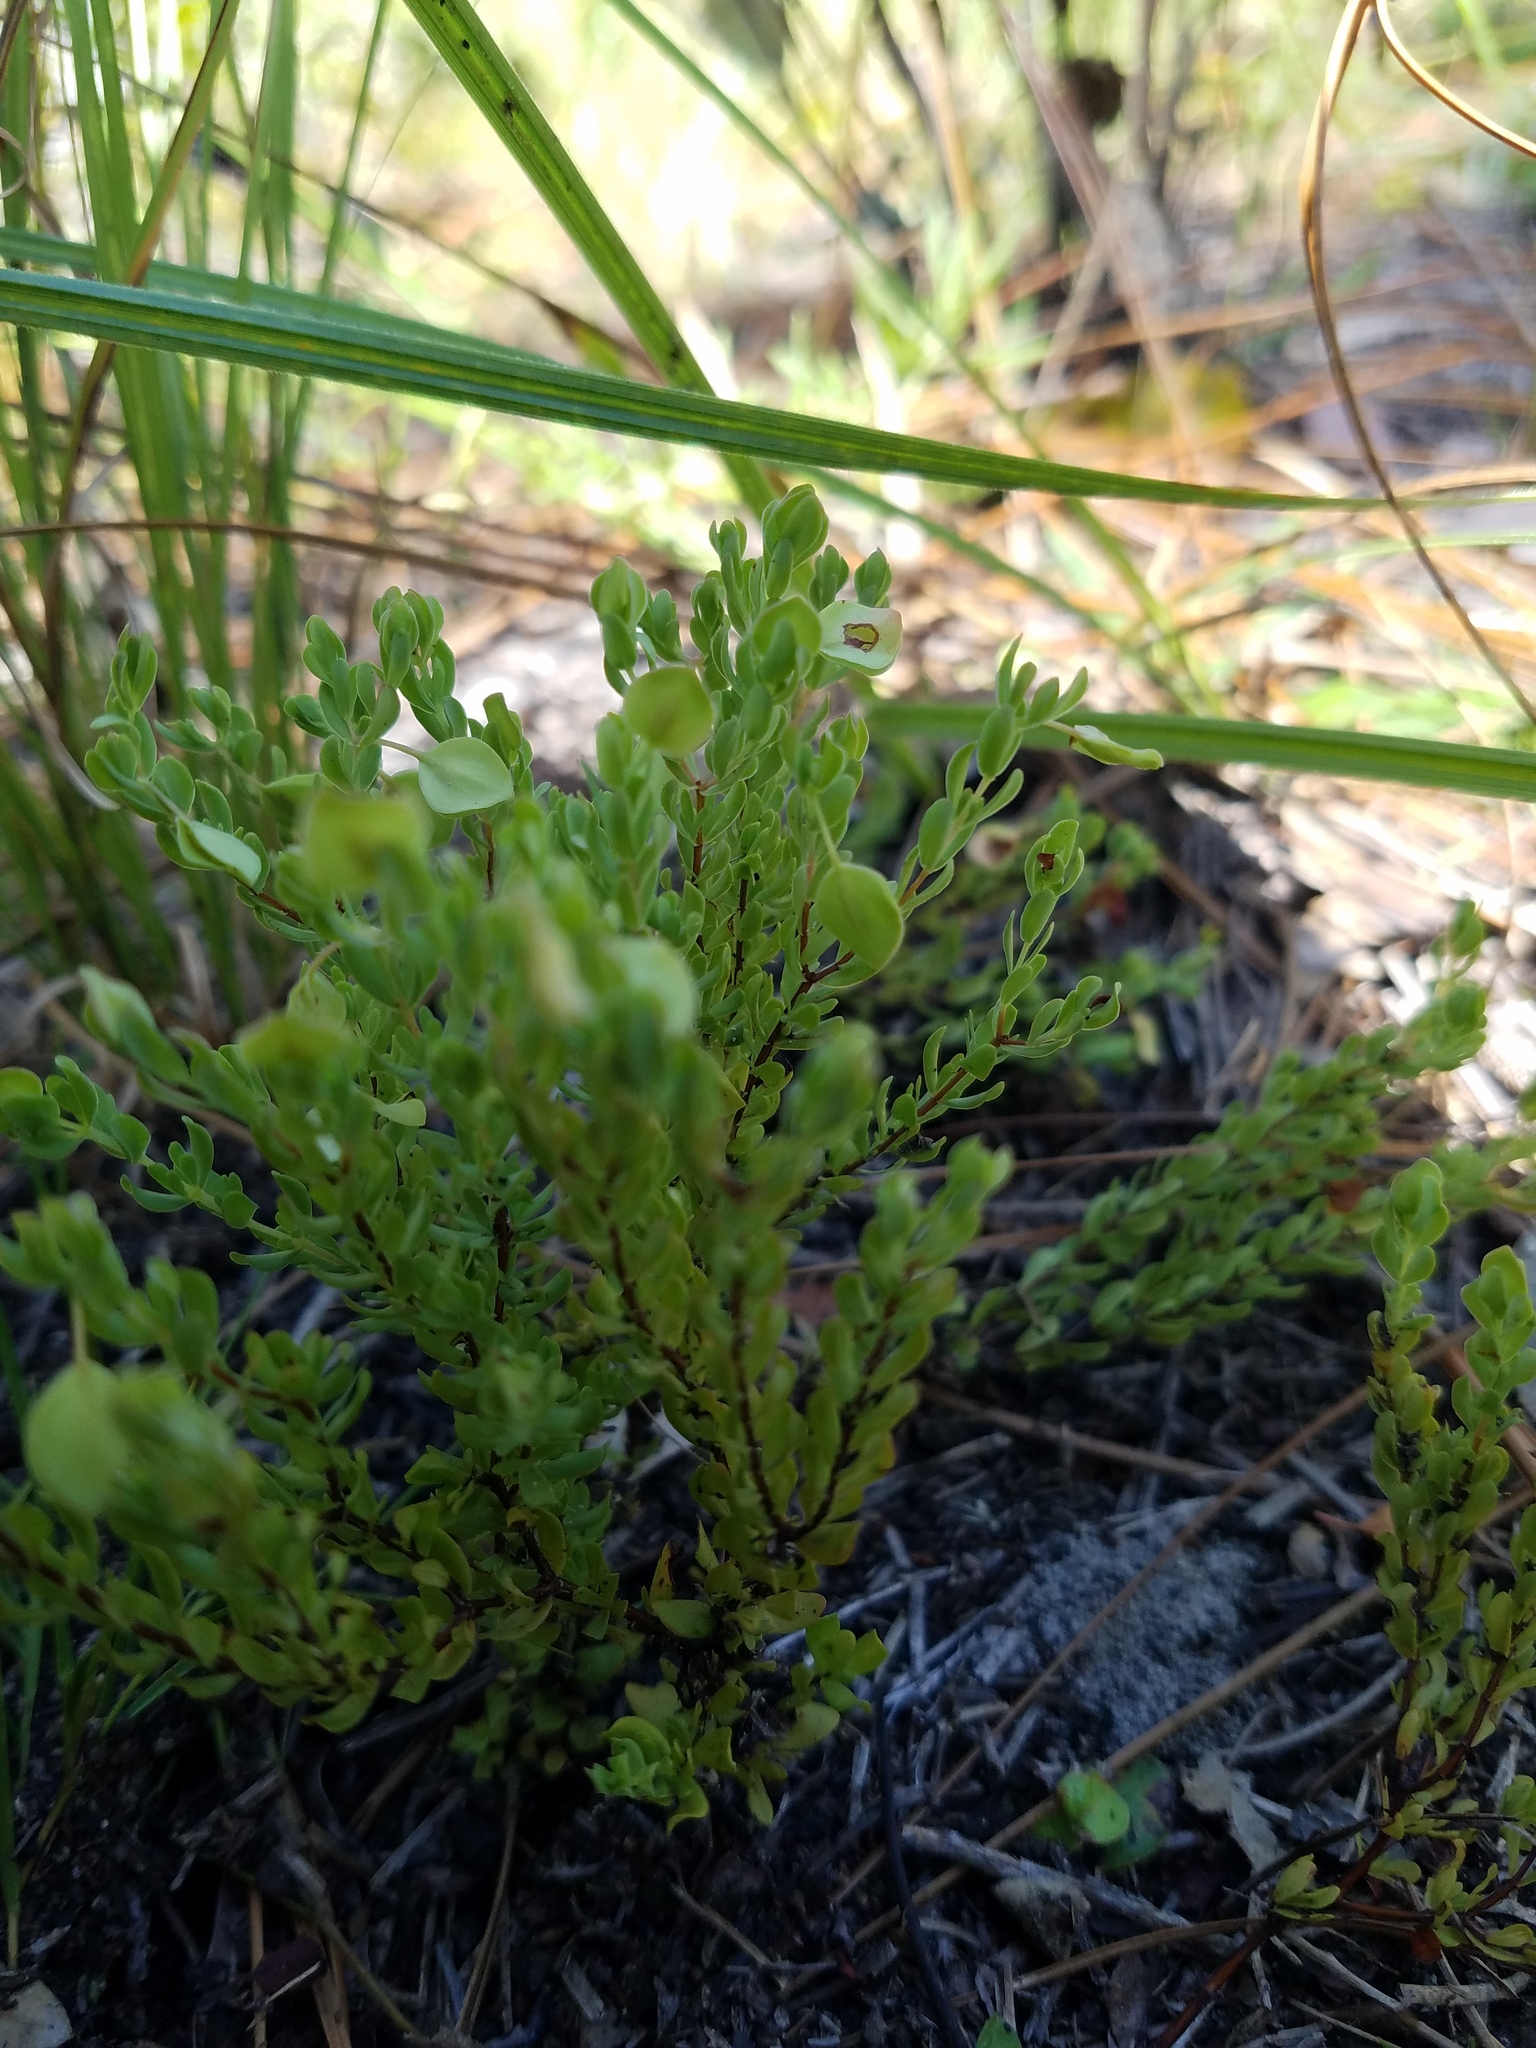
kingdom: Plantae
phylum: Tracheophyta
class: Magnoliopsida
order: Malpighiales
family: Hypericaceae
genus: Hypericum
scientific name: Hypericum suffruticosum
